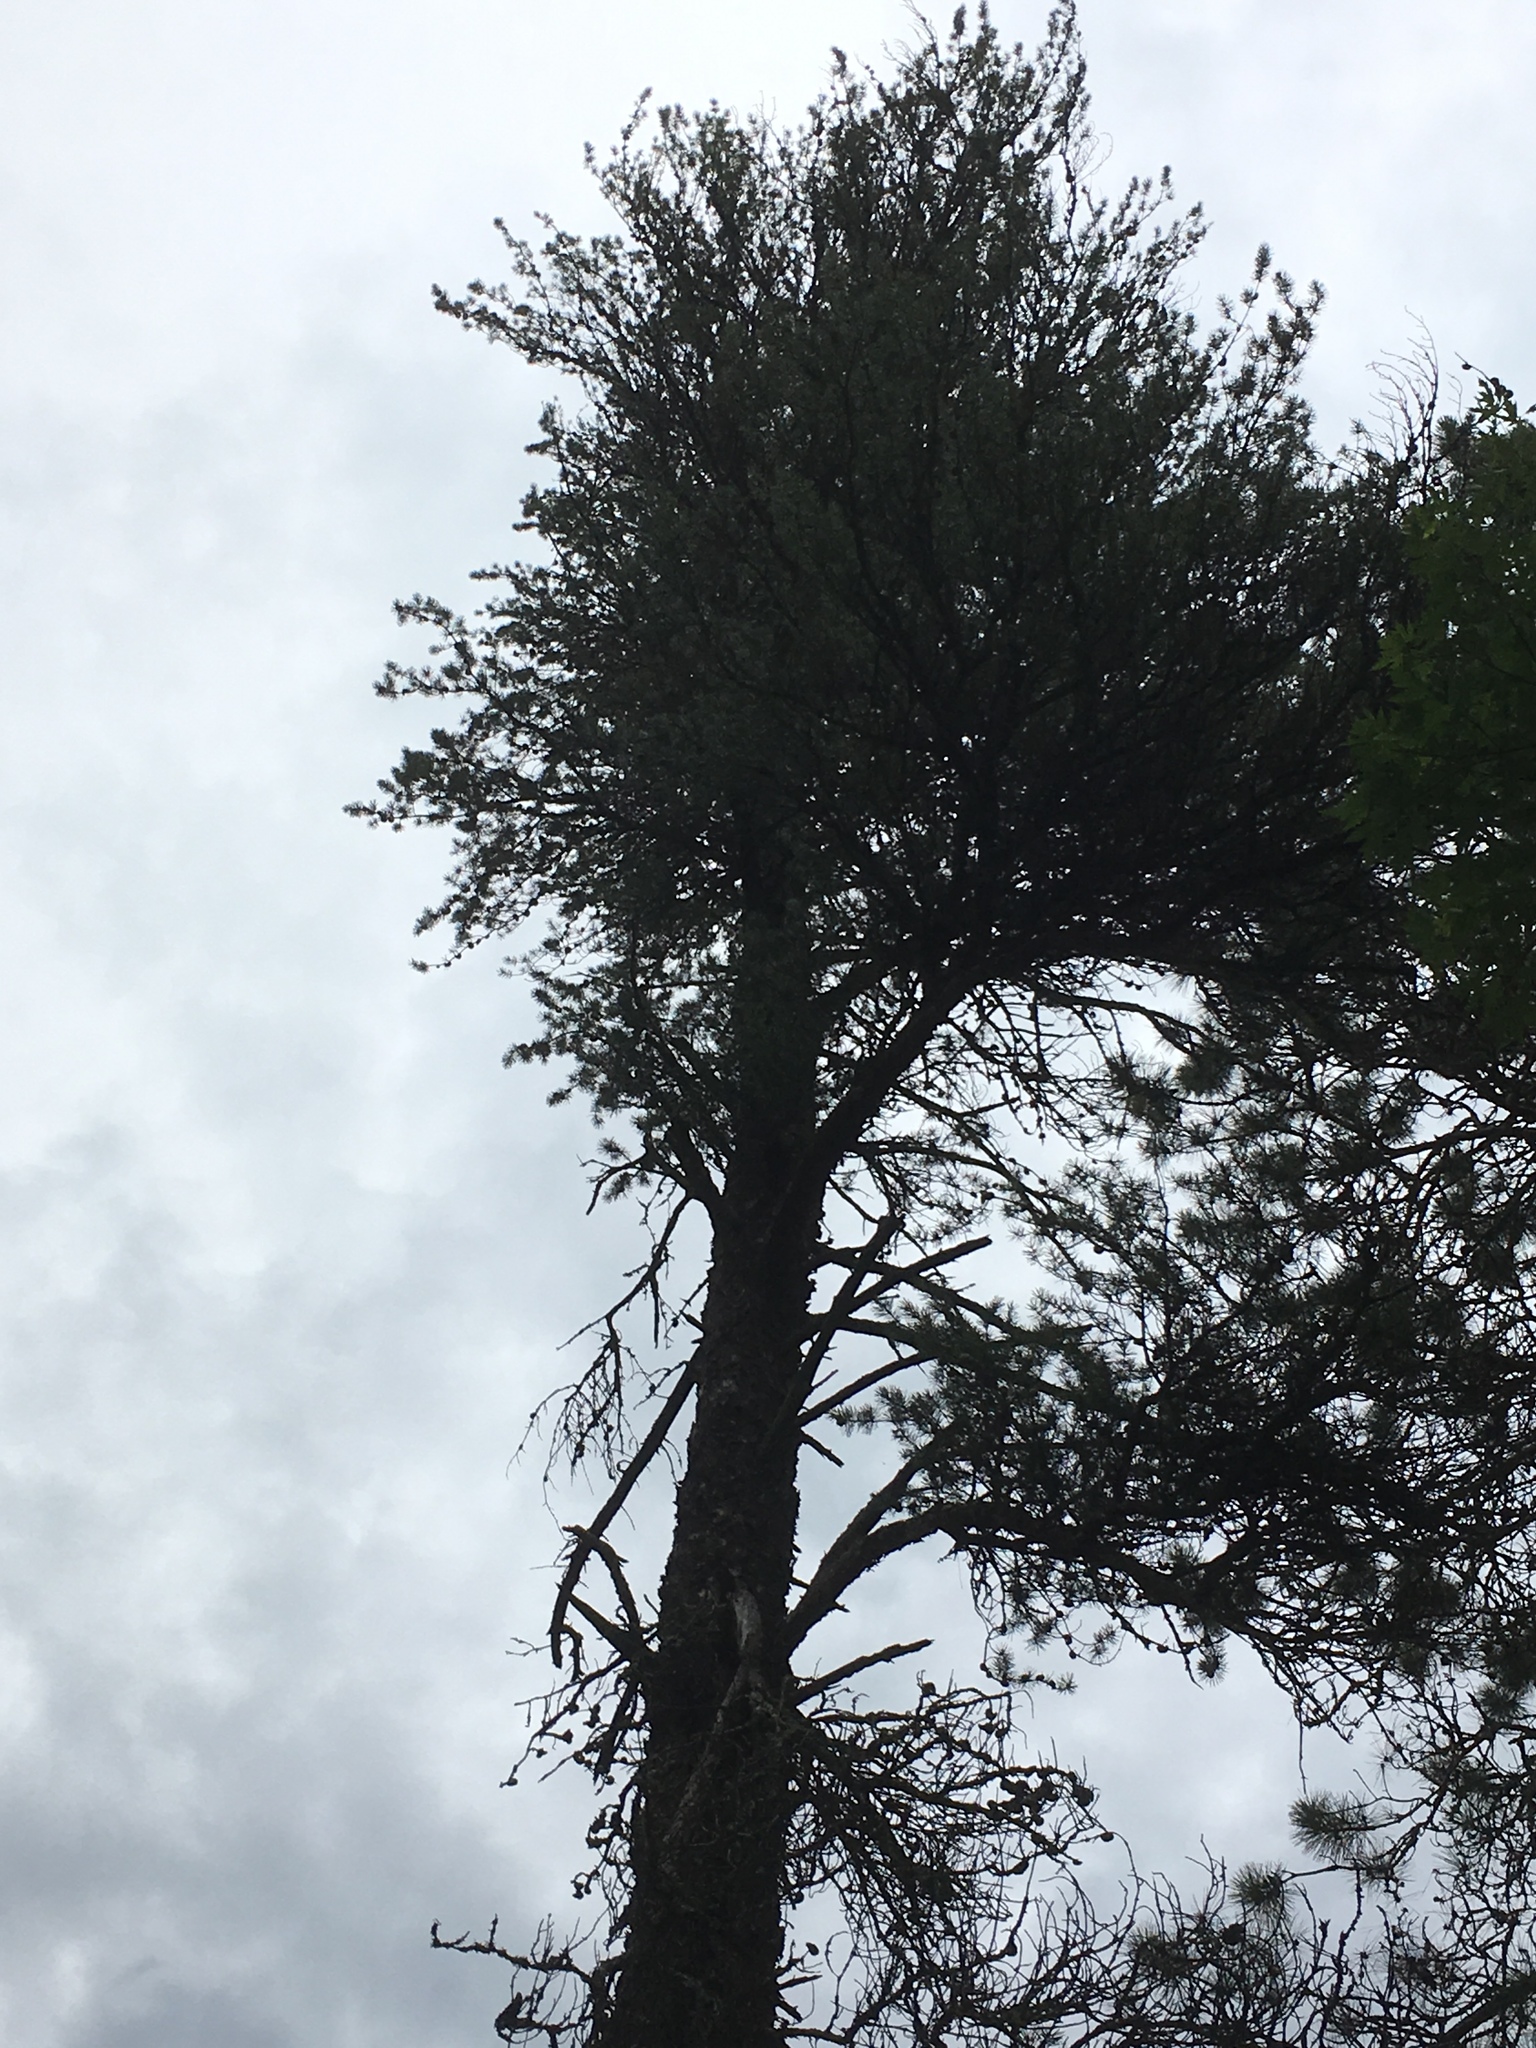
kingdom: Plantae
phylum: Tracheophyta
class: Pinopsida
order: Pinales
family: Pinaceae
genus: Pinus
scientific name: Pinus banksiana
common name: Jack pine
